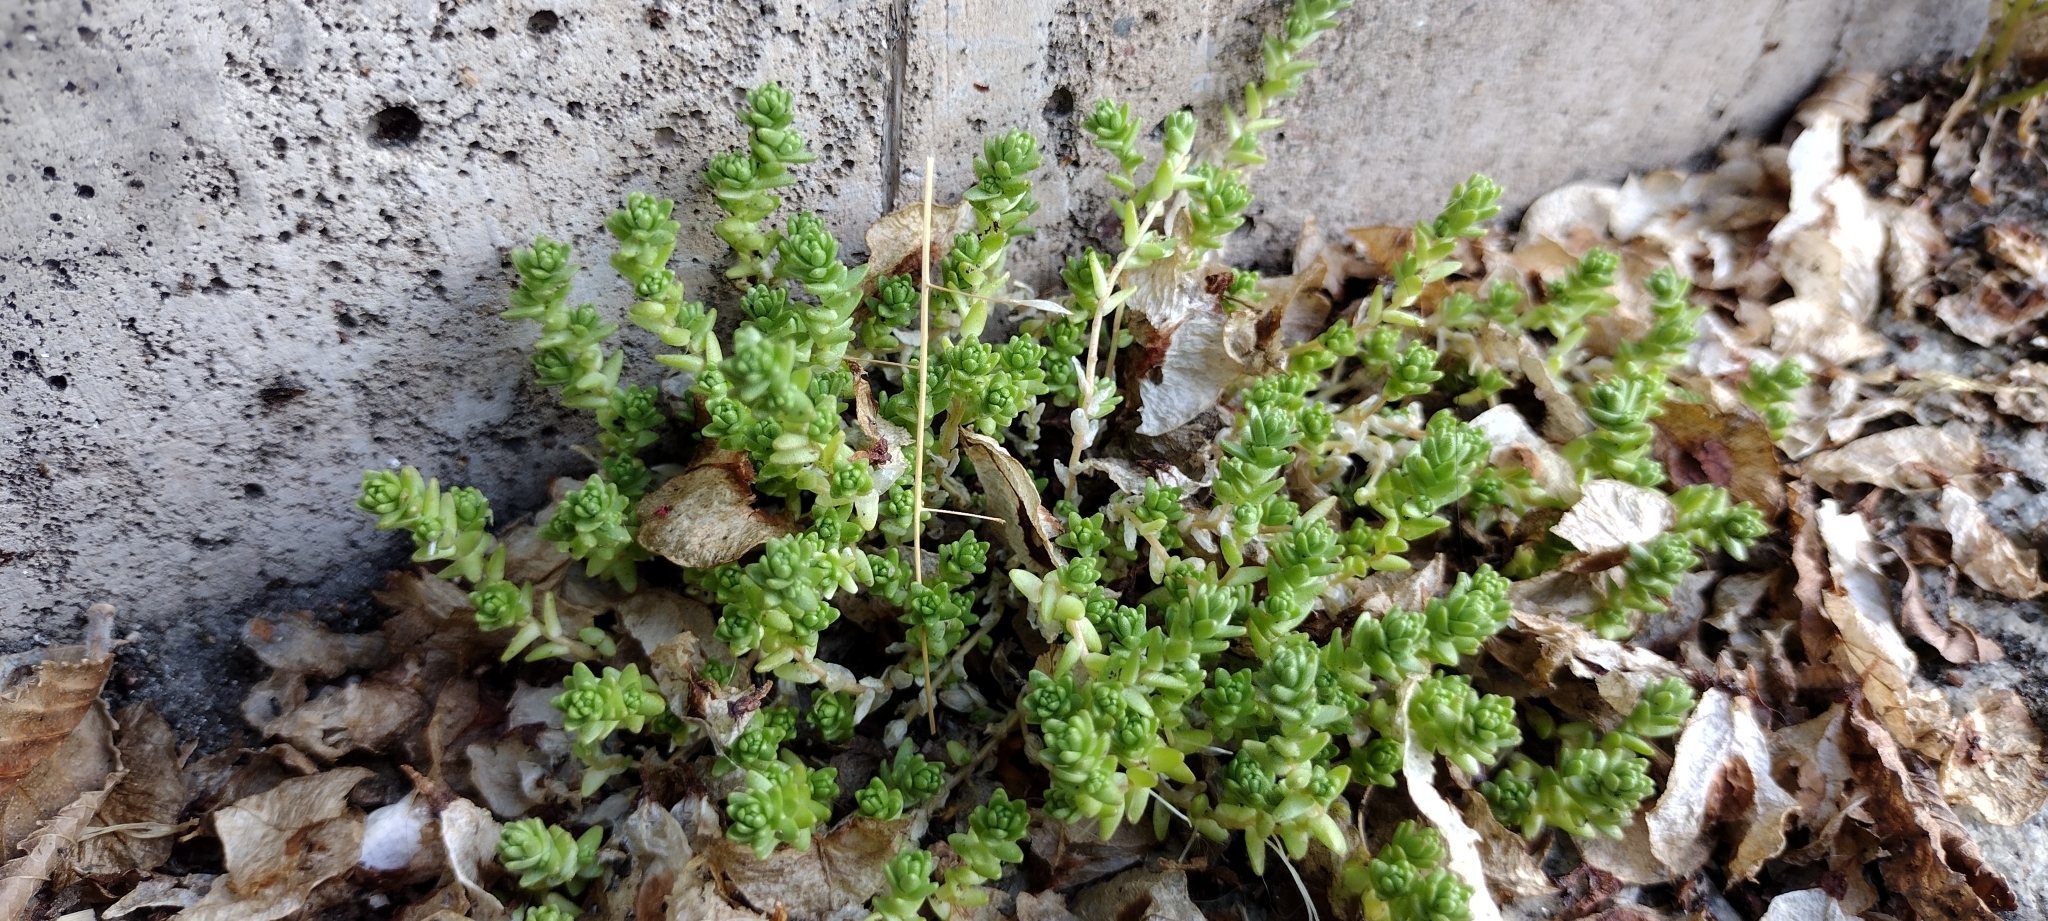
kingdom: Plantae
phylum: Tracheophyta
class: Magnoliopsida
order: Saxifragales
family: Crassulaceae
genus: Sedum
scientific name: Sedum acre
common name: Biting stonecrop
